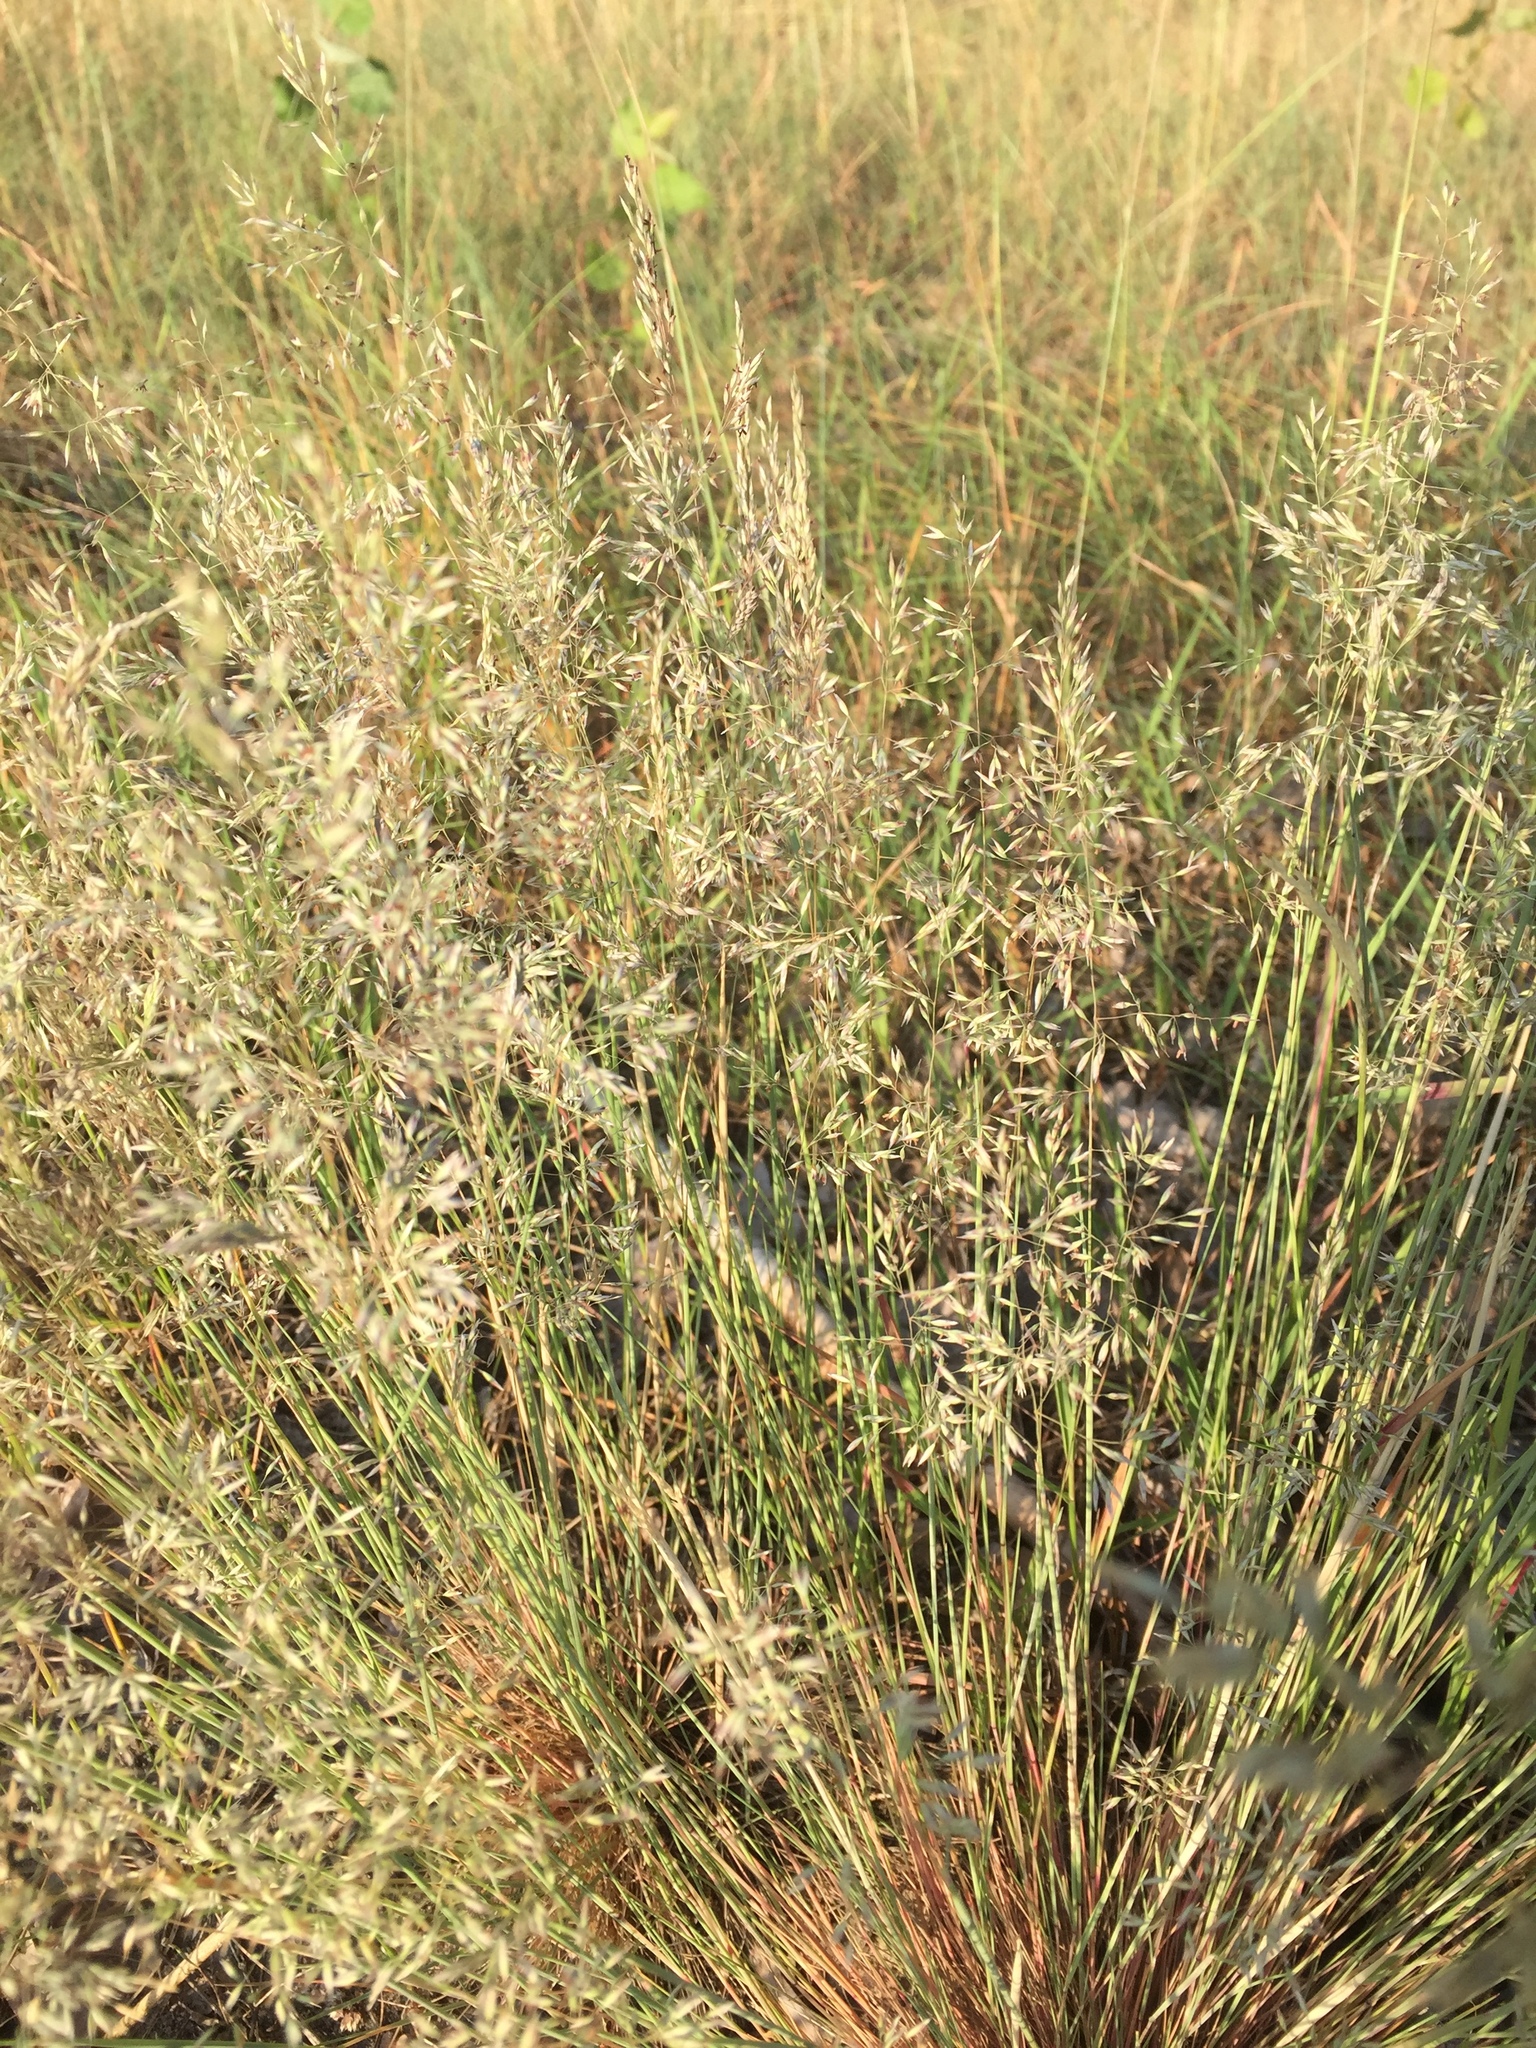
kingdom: Plantae
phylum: Tracheophyta
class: Liliopsida
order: Poales
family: Poaceae
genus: Corynephorus
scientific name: Corynephorus canescens
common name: Grey hair-grass
